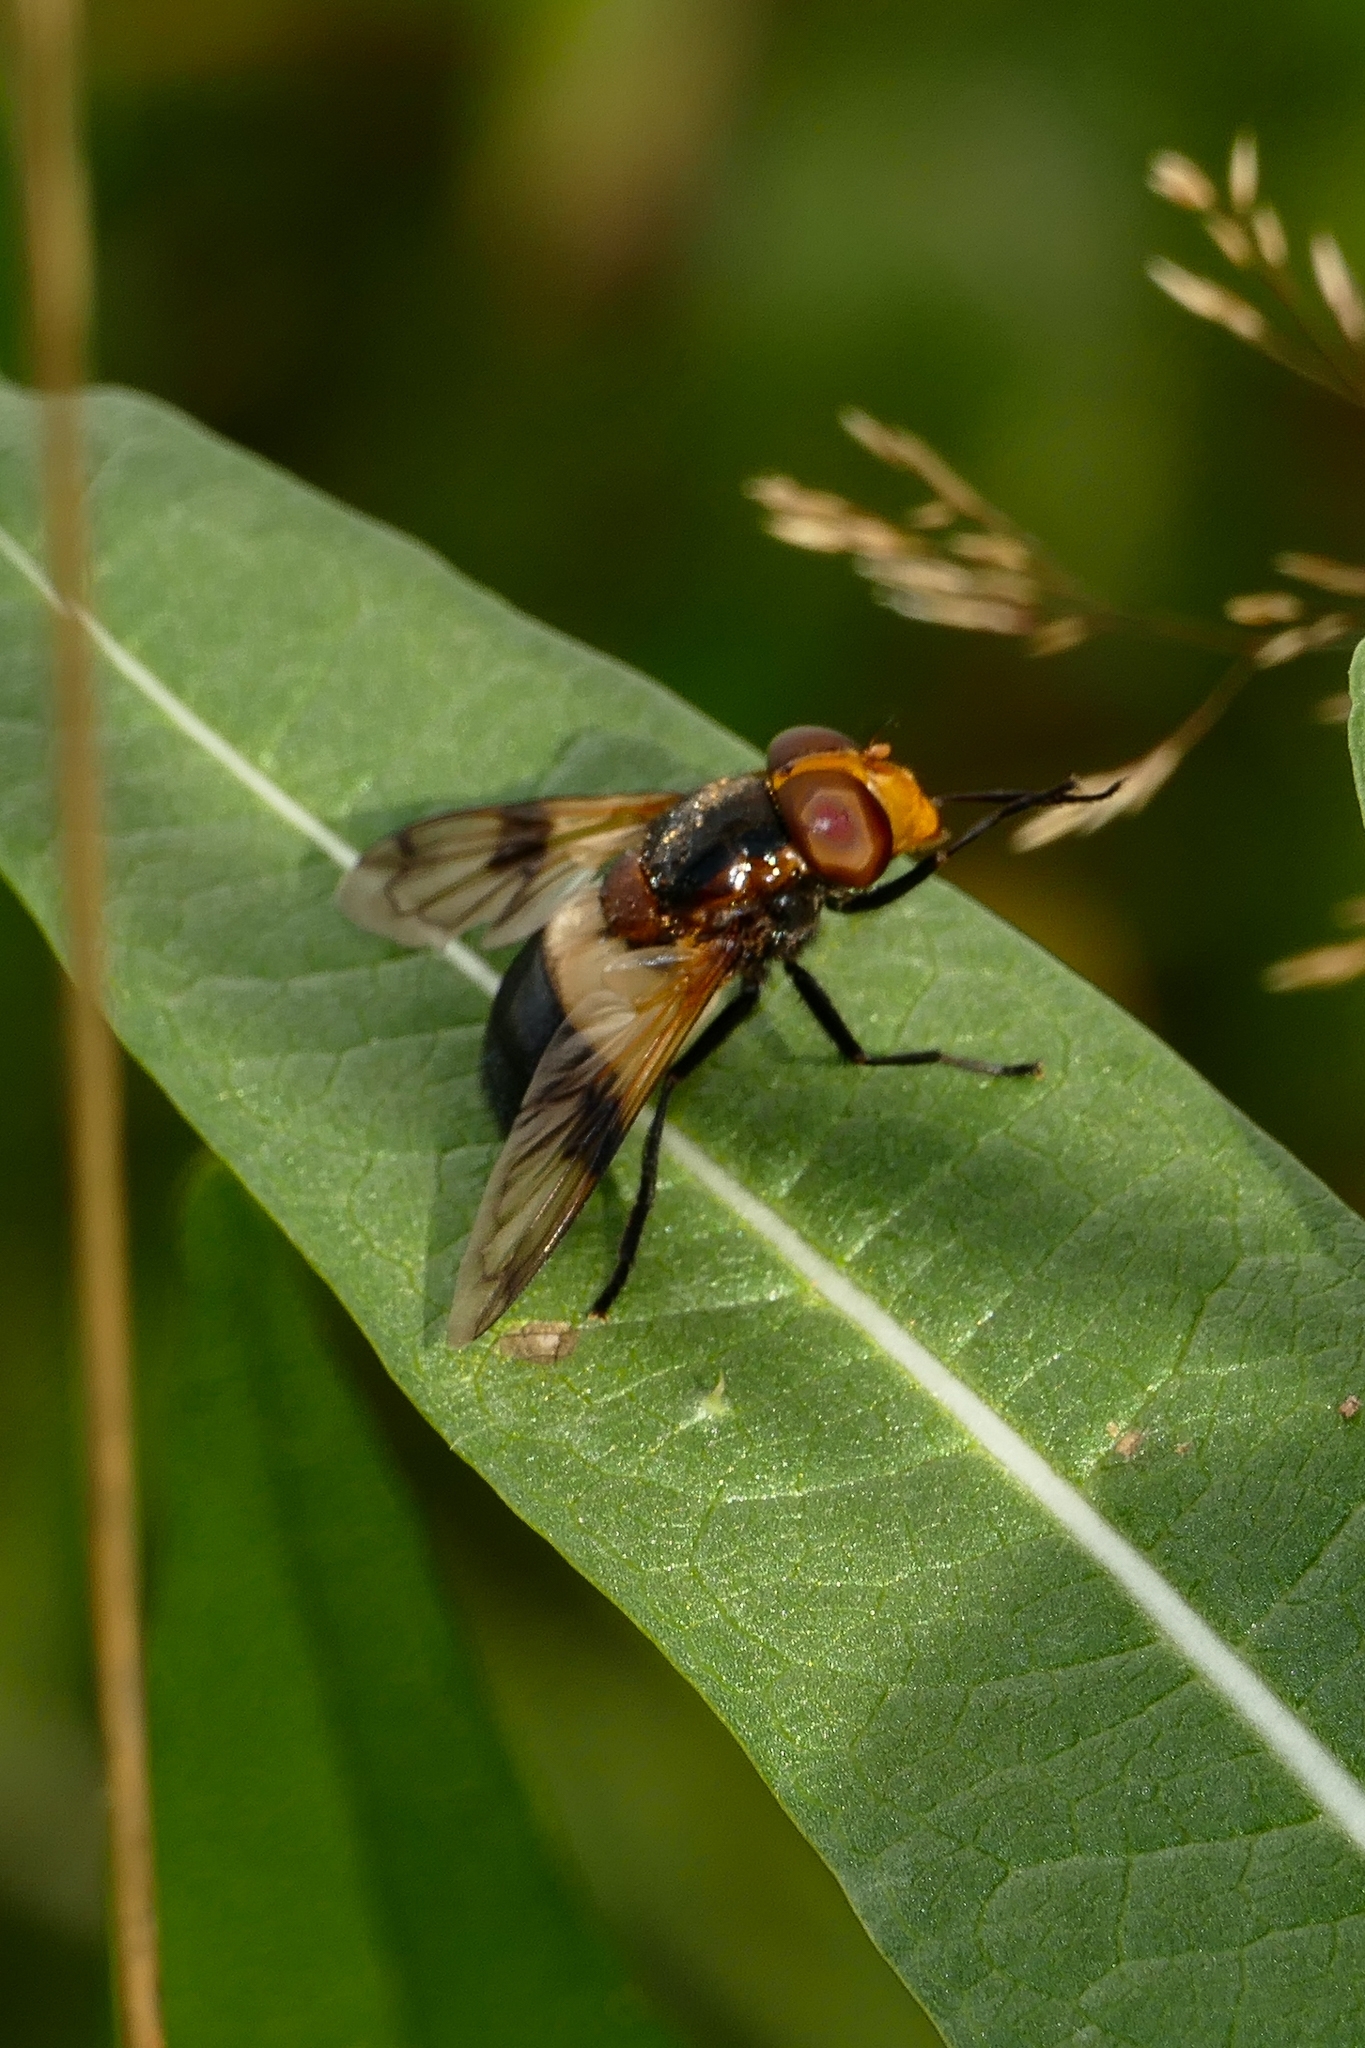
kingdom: Animalia
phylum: Arthropoda
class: Insecta
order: Diptera
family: Syrphidae
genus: Volucella
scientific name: Volucella pellucens
